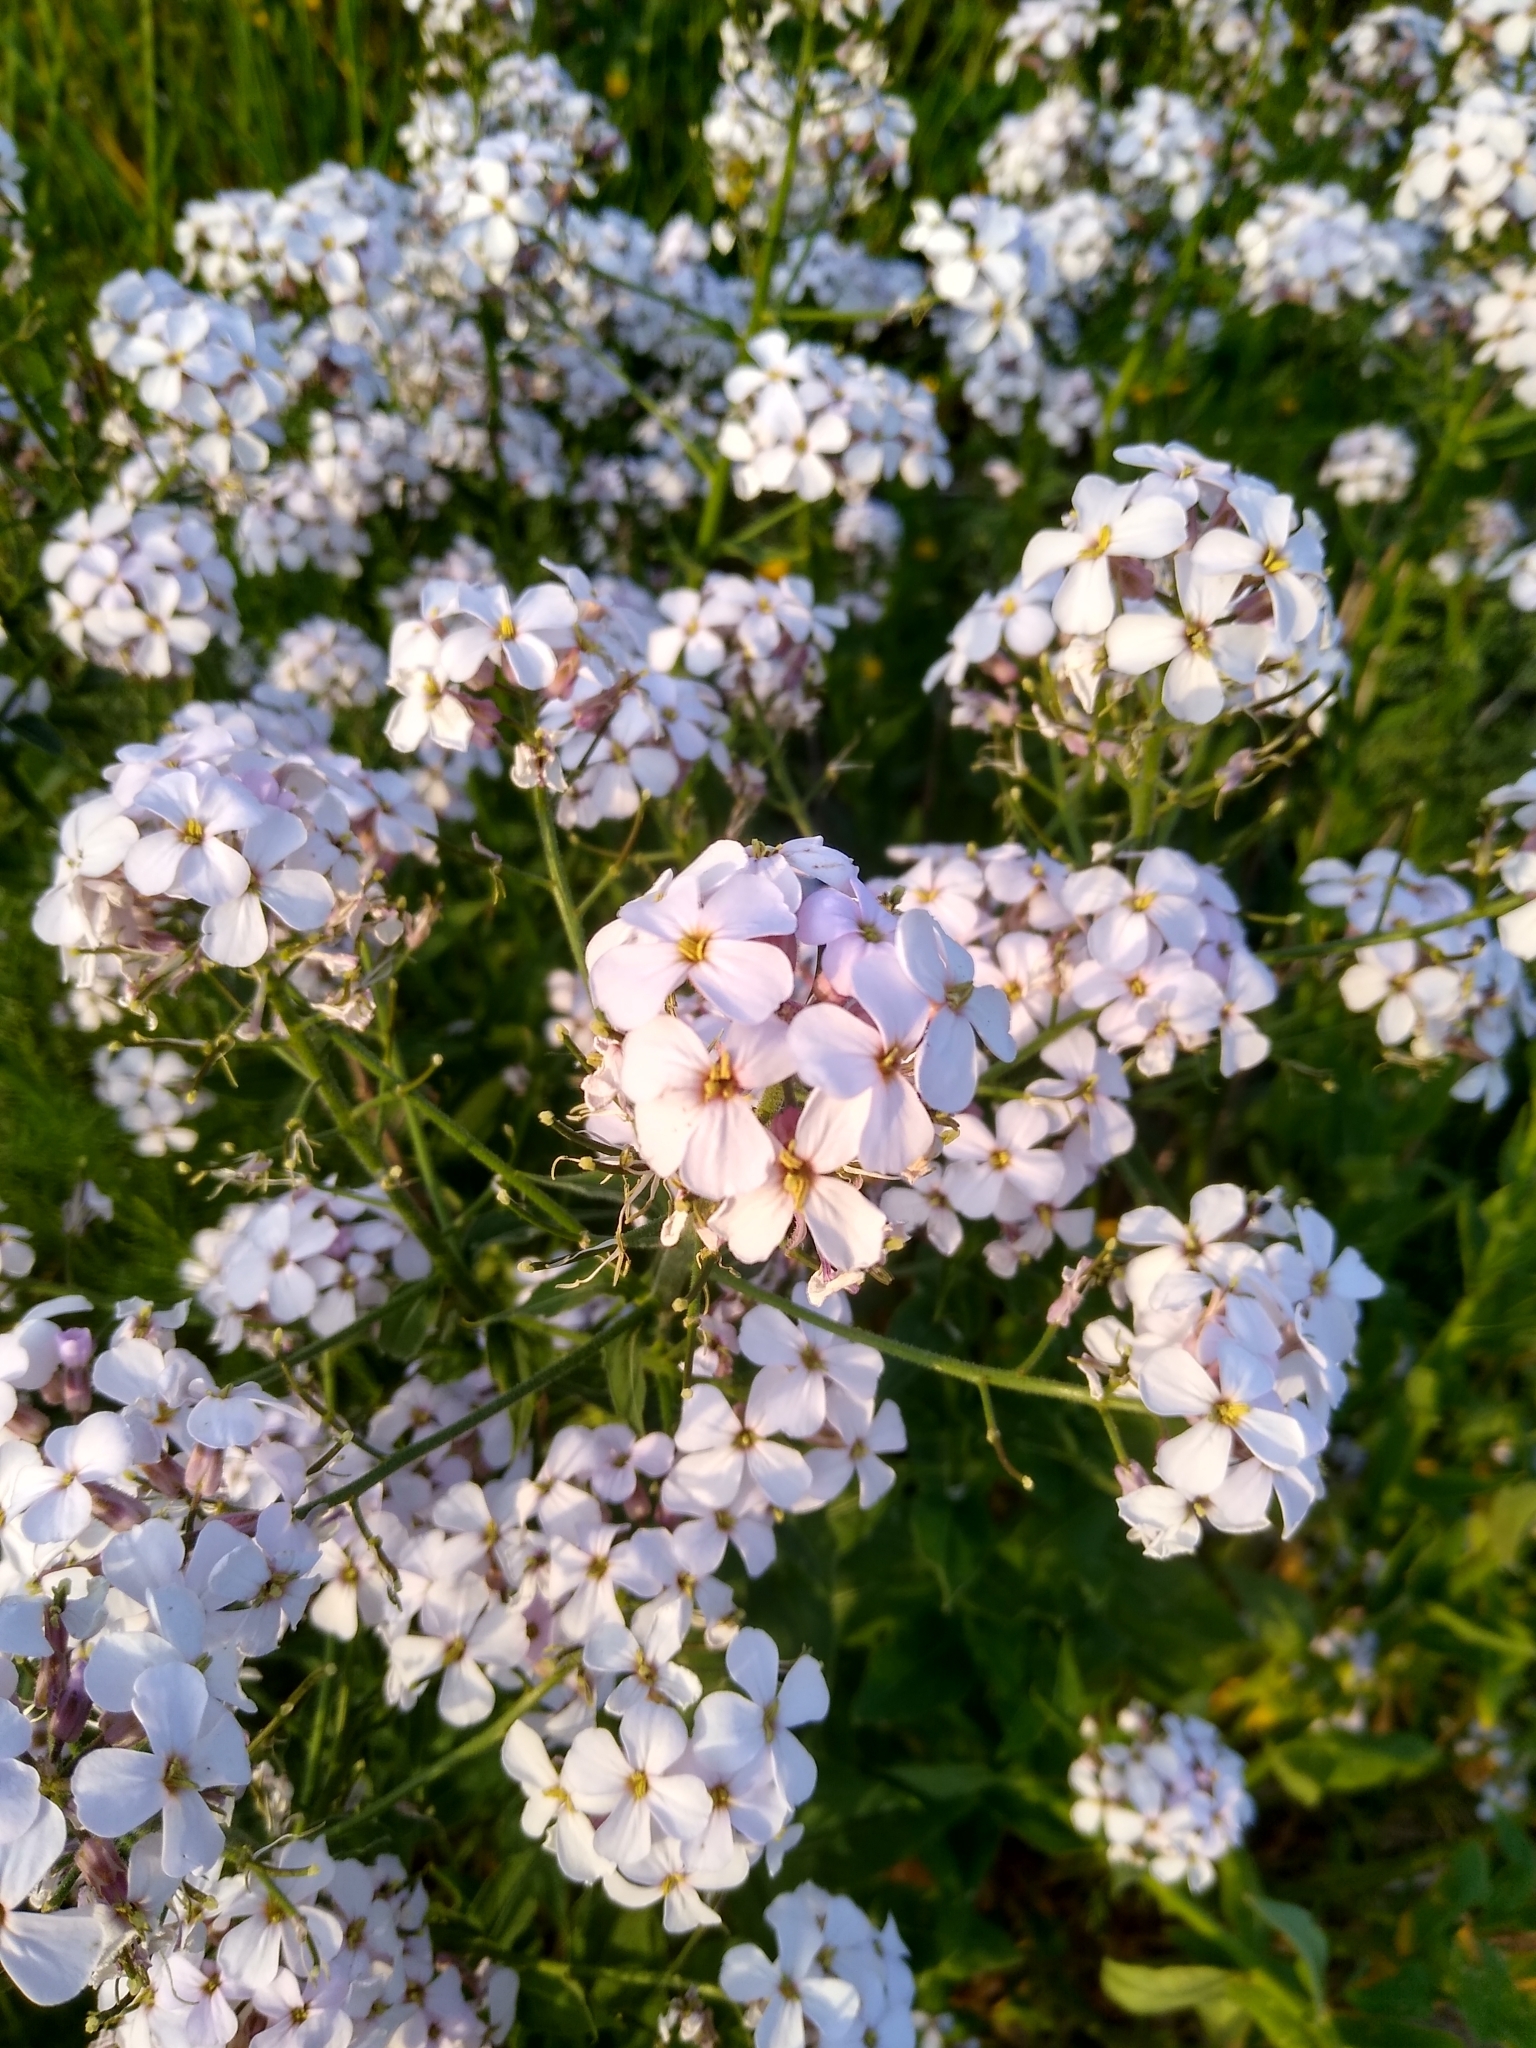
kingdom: Plantae
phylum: Tracheophyta
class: Magnoliopsida
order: Brassicales
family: Brassicaceae
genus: Hesperis
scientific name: Hesperis matronalis
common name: Dame's-violet
